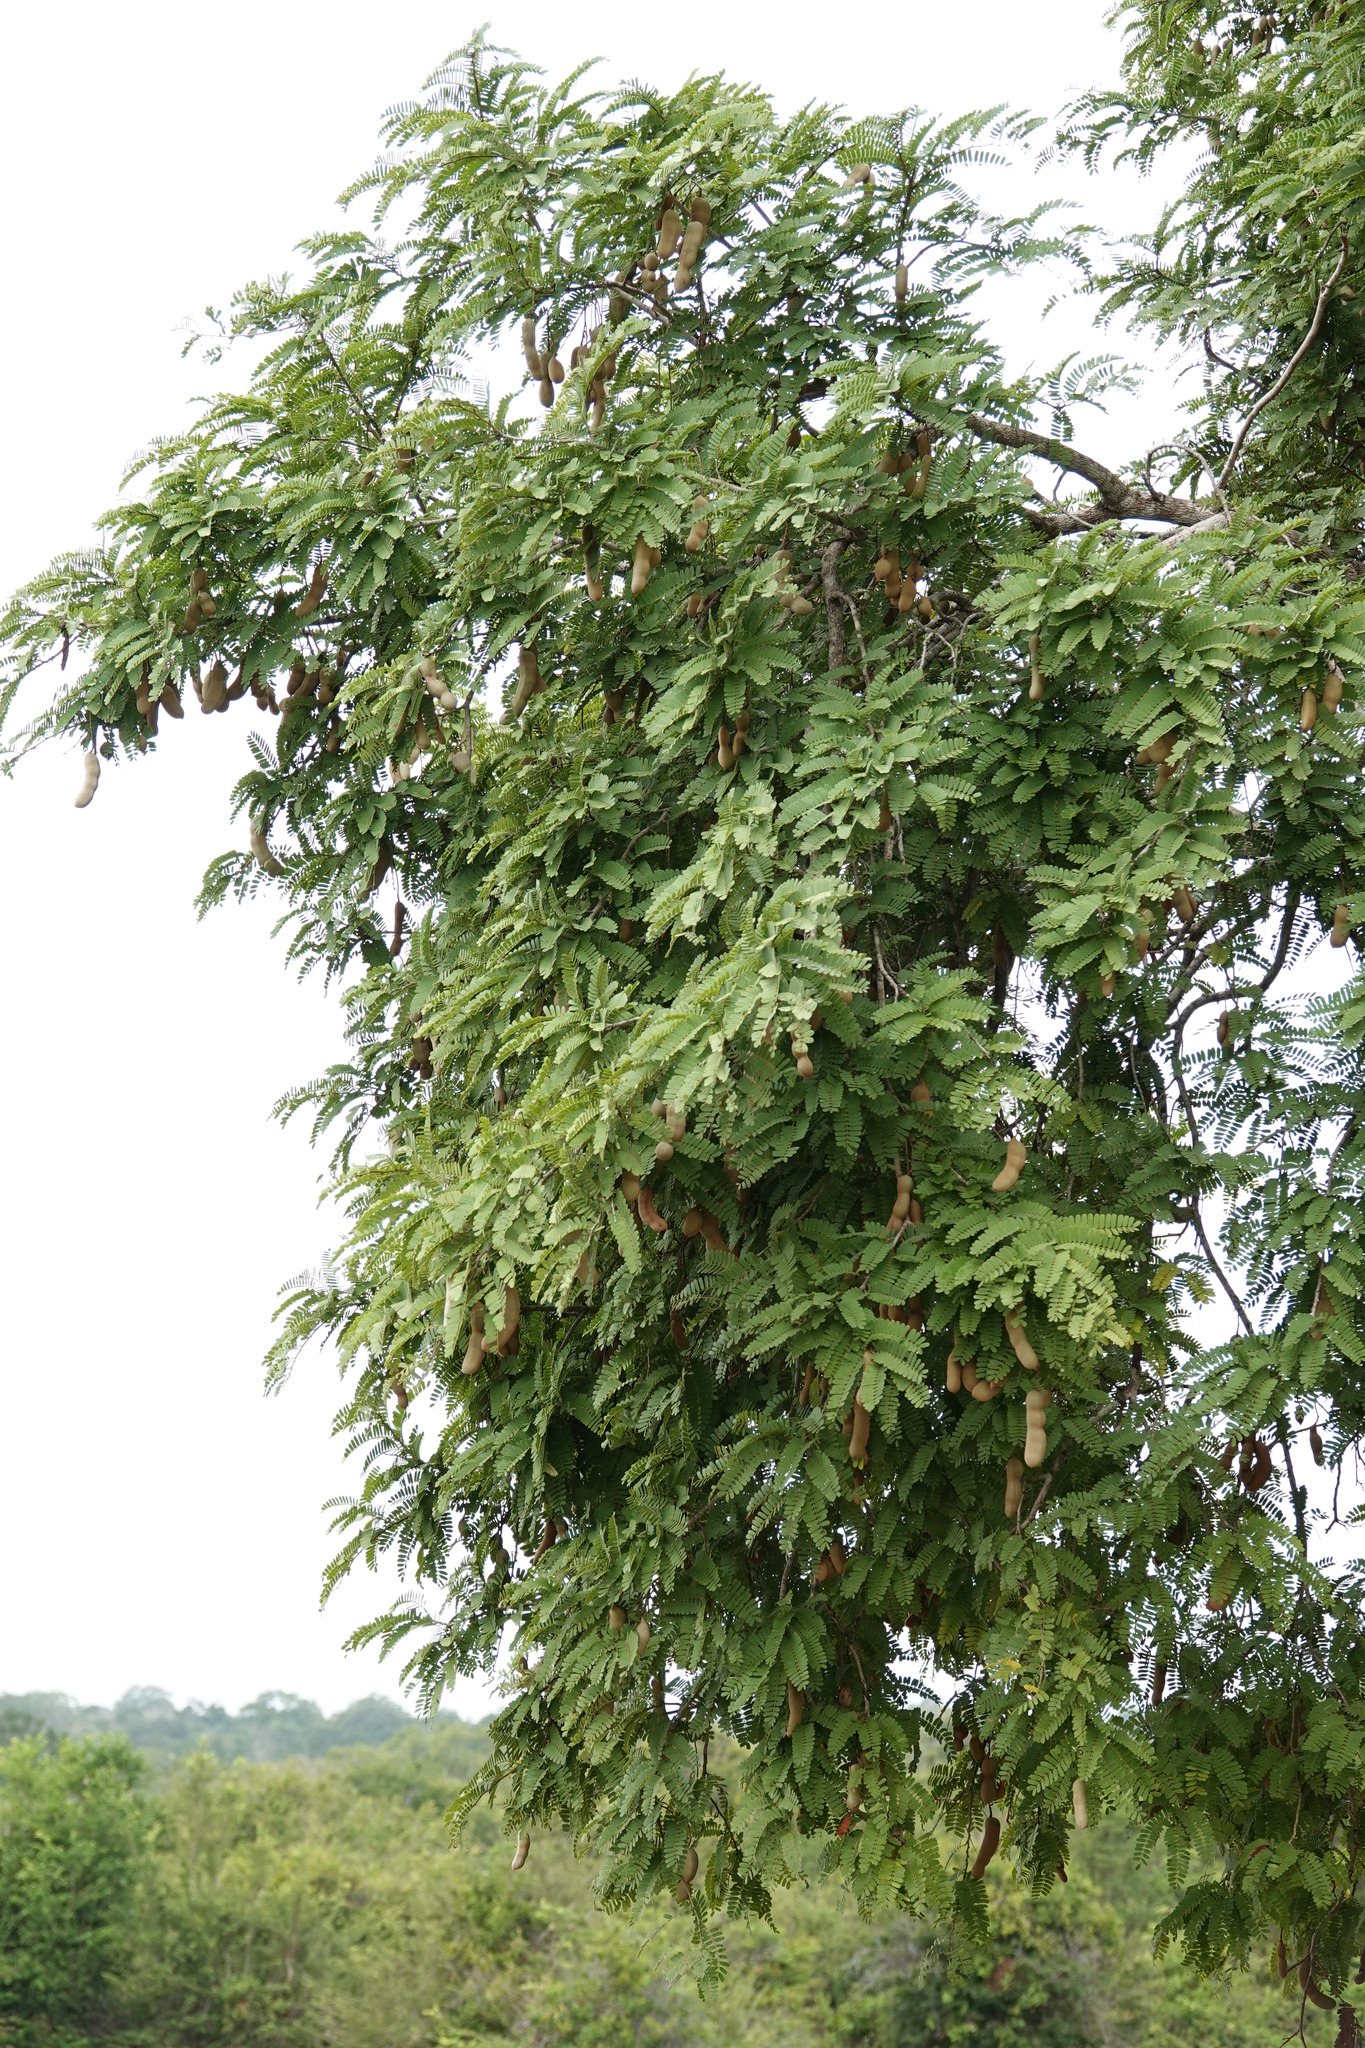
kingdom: Plantae
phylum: Tracheophyta
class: Magnoliopsida
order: Fabales
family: Fabaceae
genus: Tamarindus
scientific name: Tamarindus indica
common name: Tamarind
